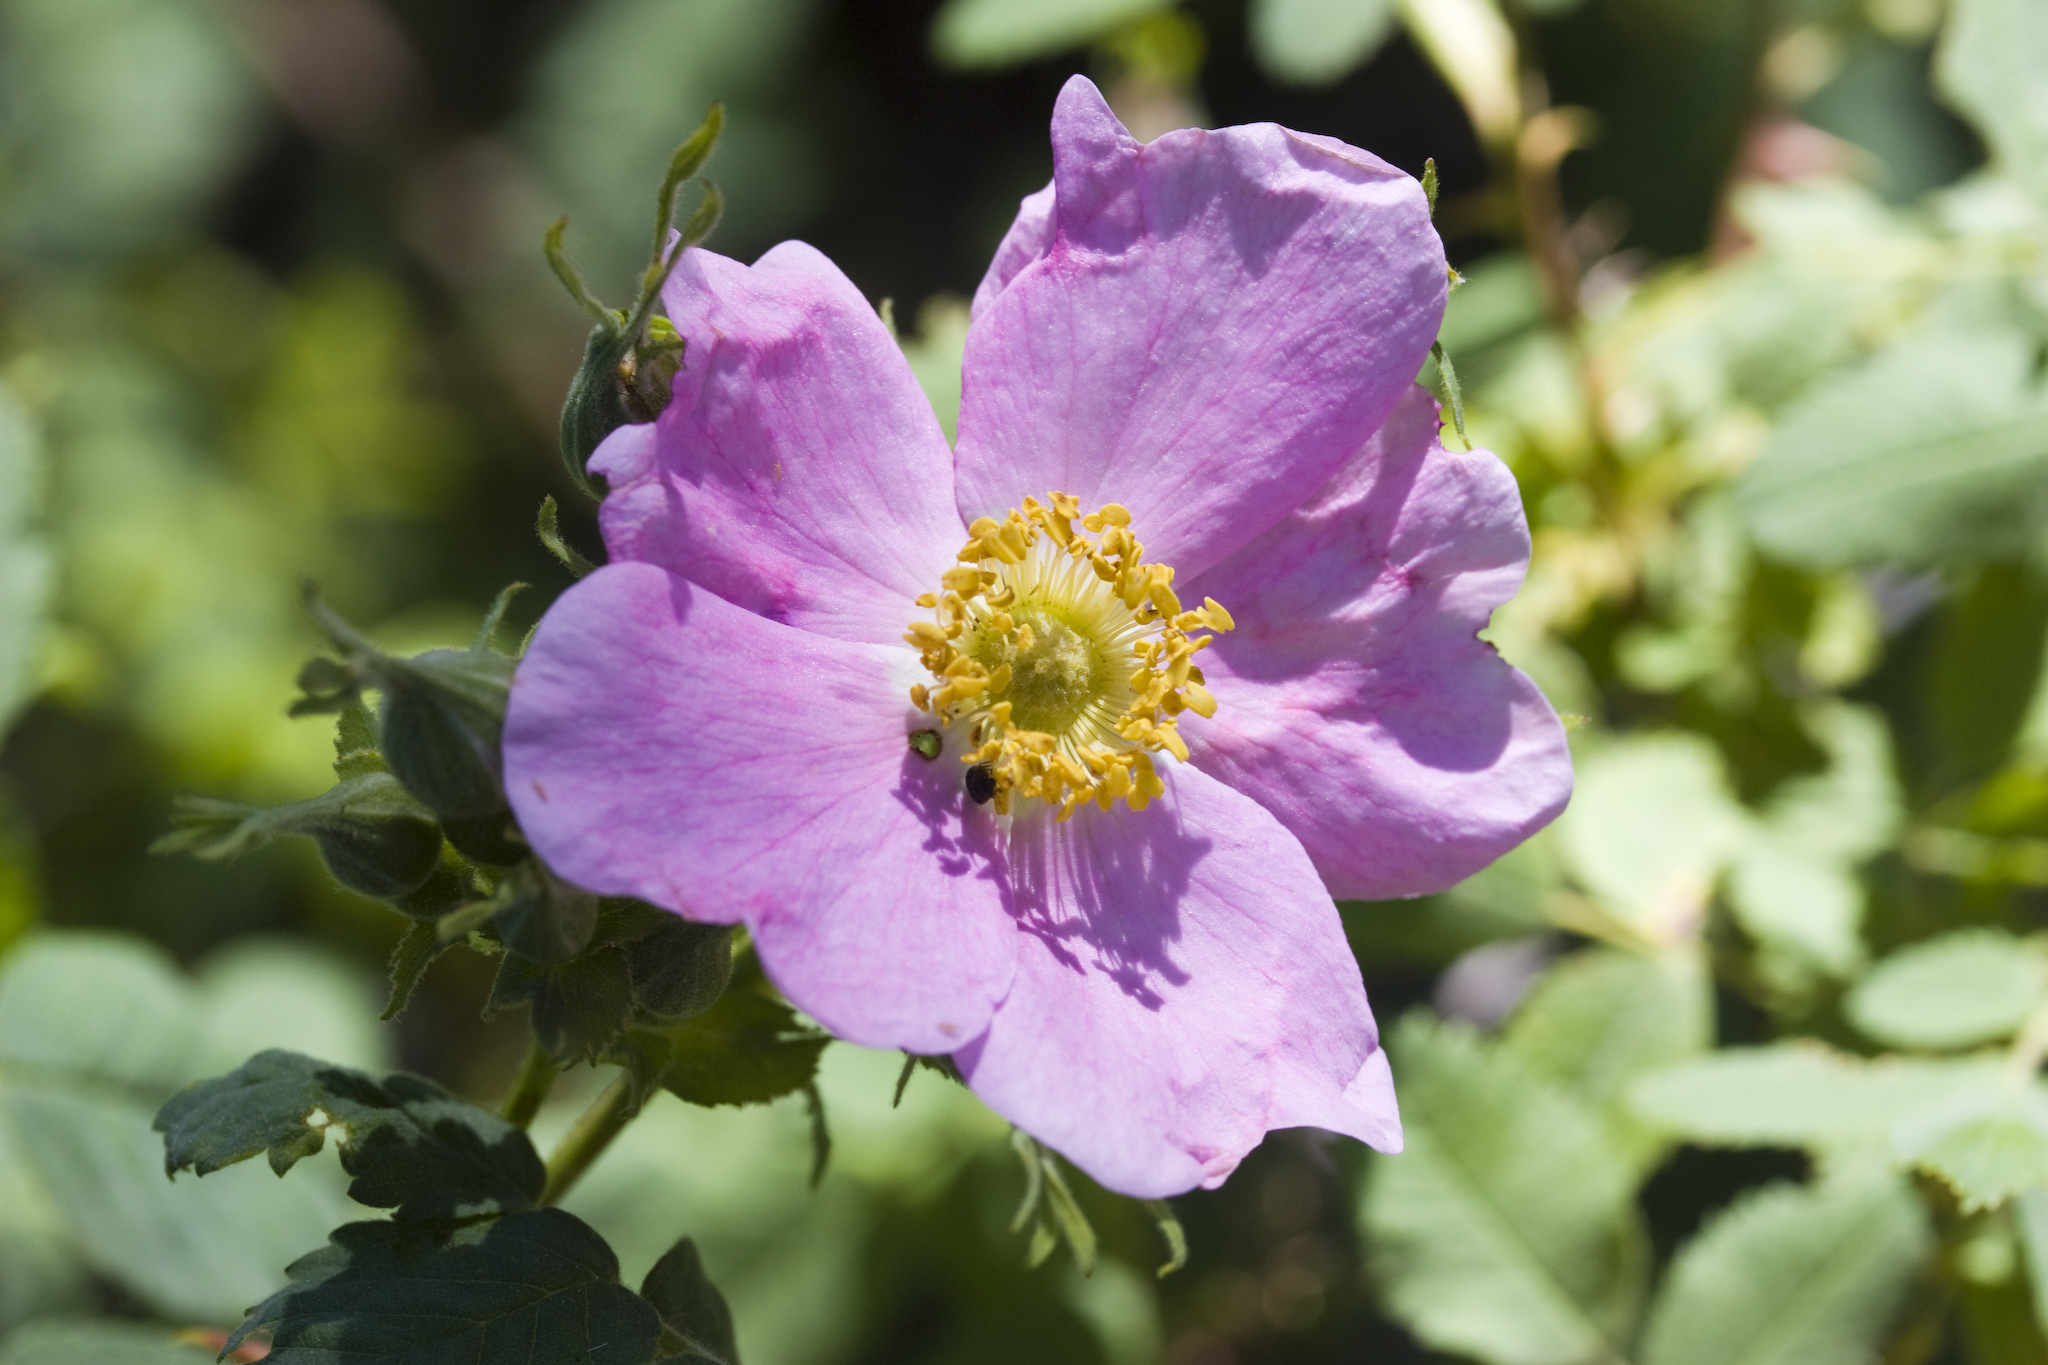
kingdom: Plantae
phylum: Tracheophyta
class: Magnoliopsida
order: Rosales
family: Rosaceae
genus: Rosa
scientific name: Rosa californica
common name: California rose
